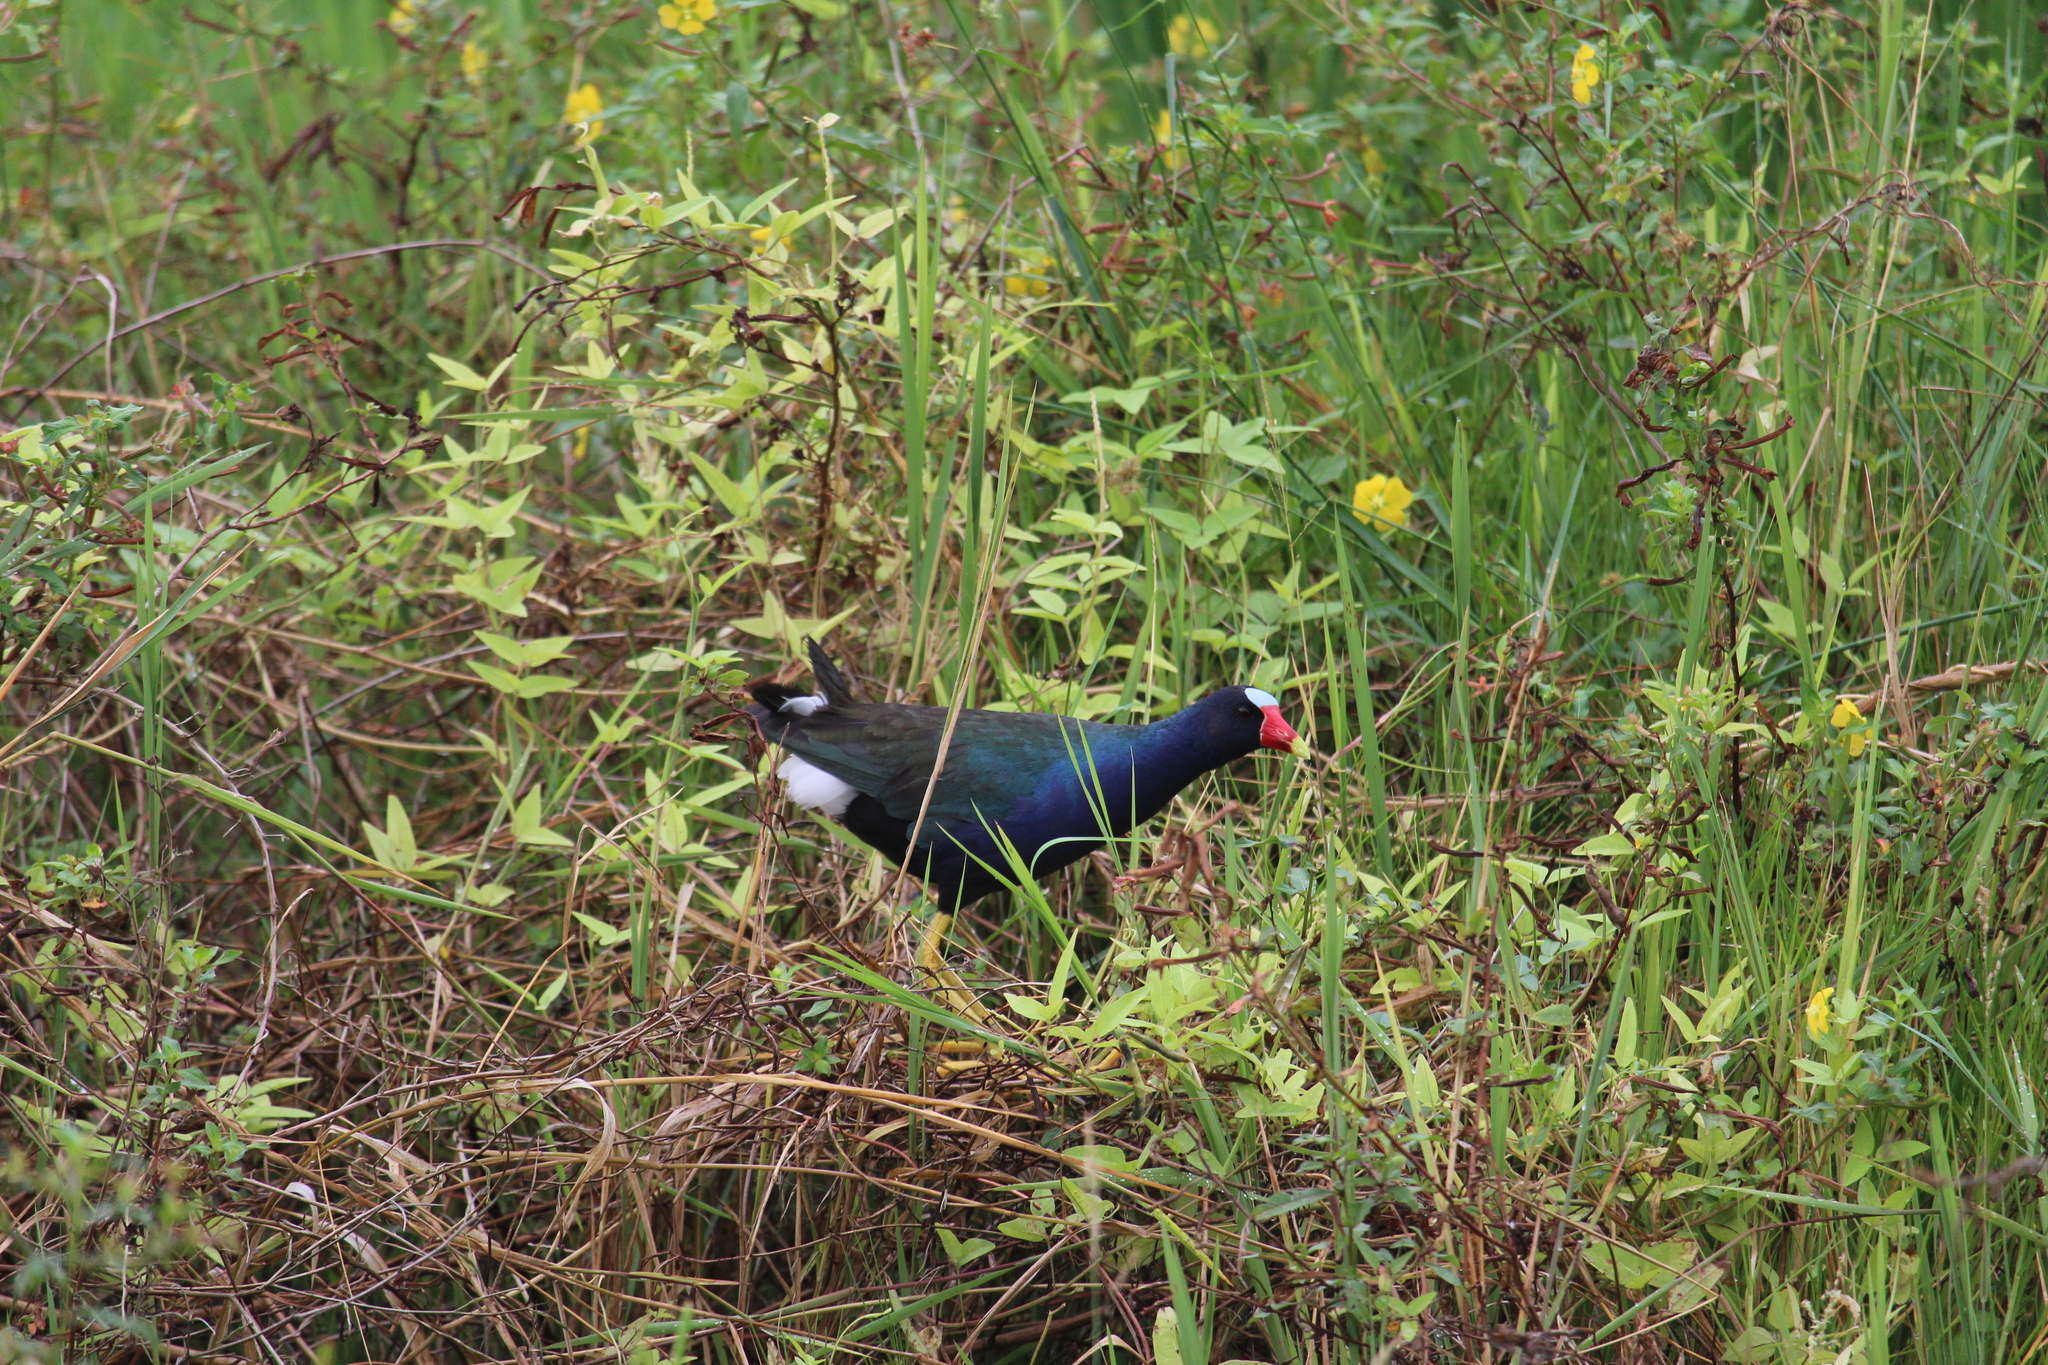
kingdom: Animalia
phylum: Chordata
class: Aves
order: Gruiformes
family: Rallidae
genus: Porphyrio
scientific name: Porphyrio martinica
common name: Purple gallinule
